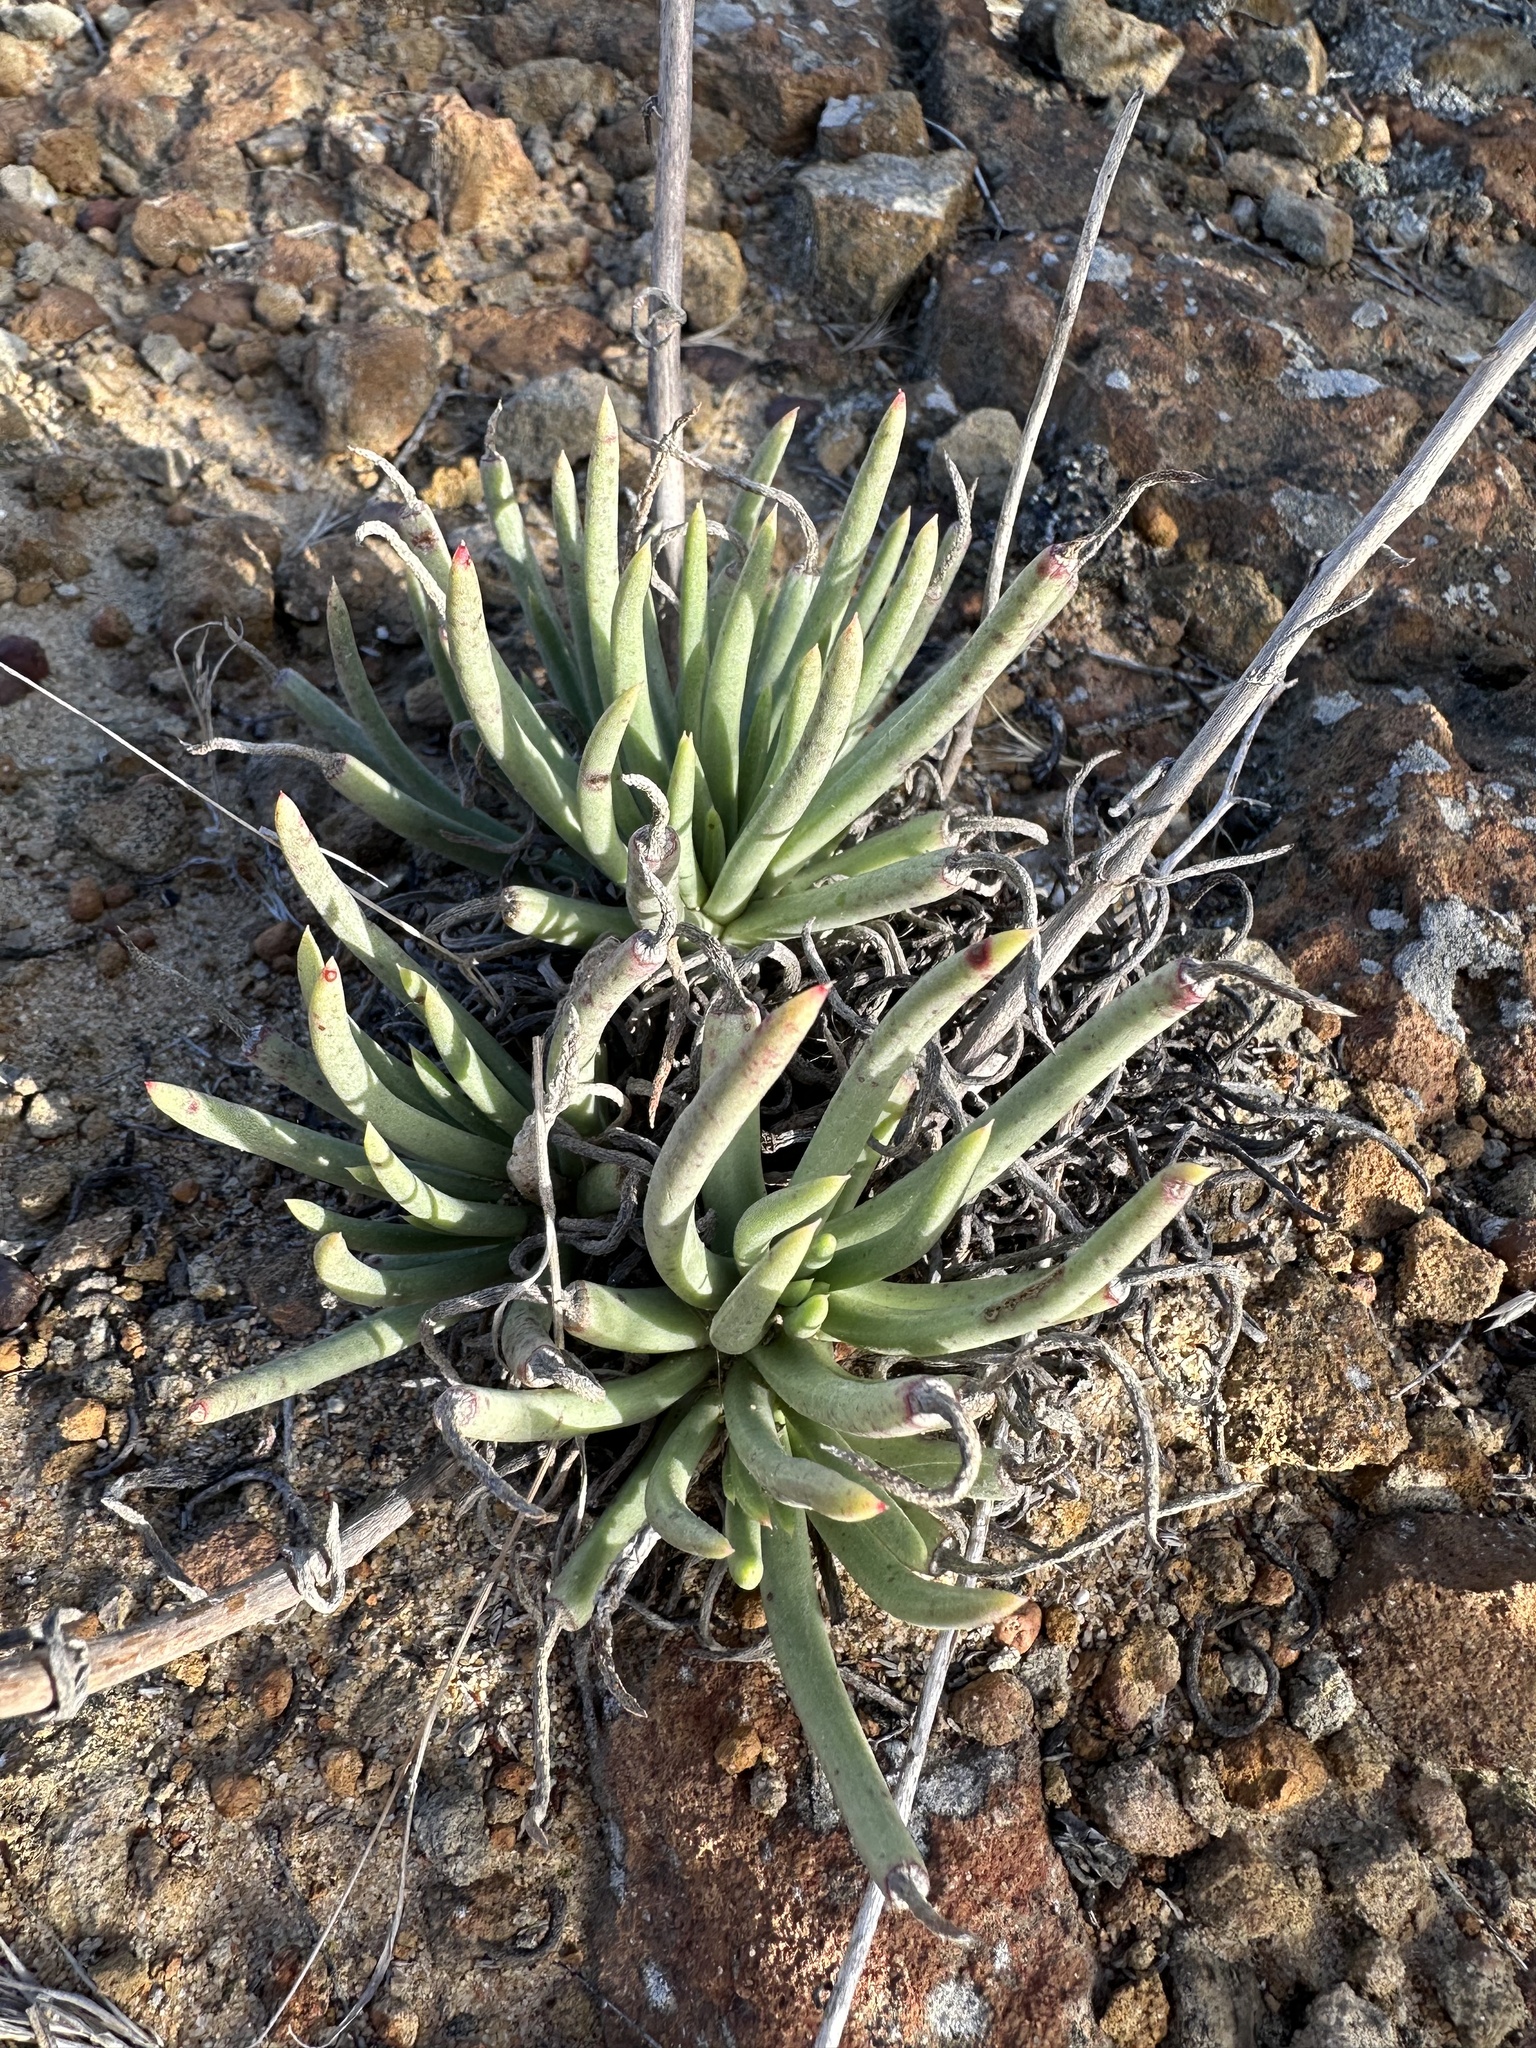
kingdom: Plantae
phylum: Tracheophyta
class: Magnoliopsida
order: Saxifragales
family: Crassulaceae
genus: Dudleya
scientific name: Dudleya edulis
